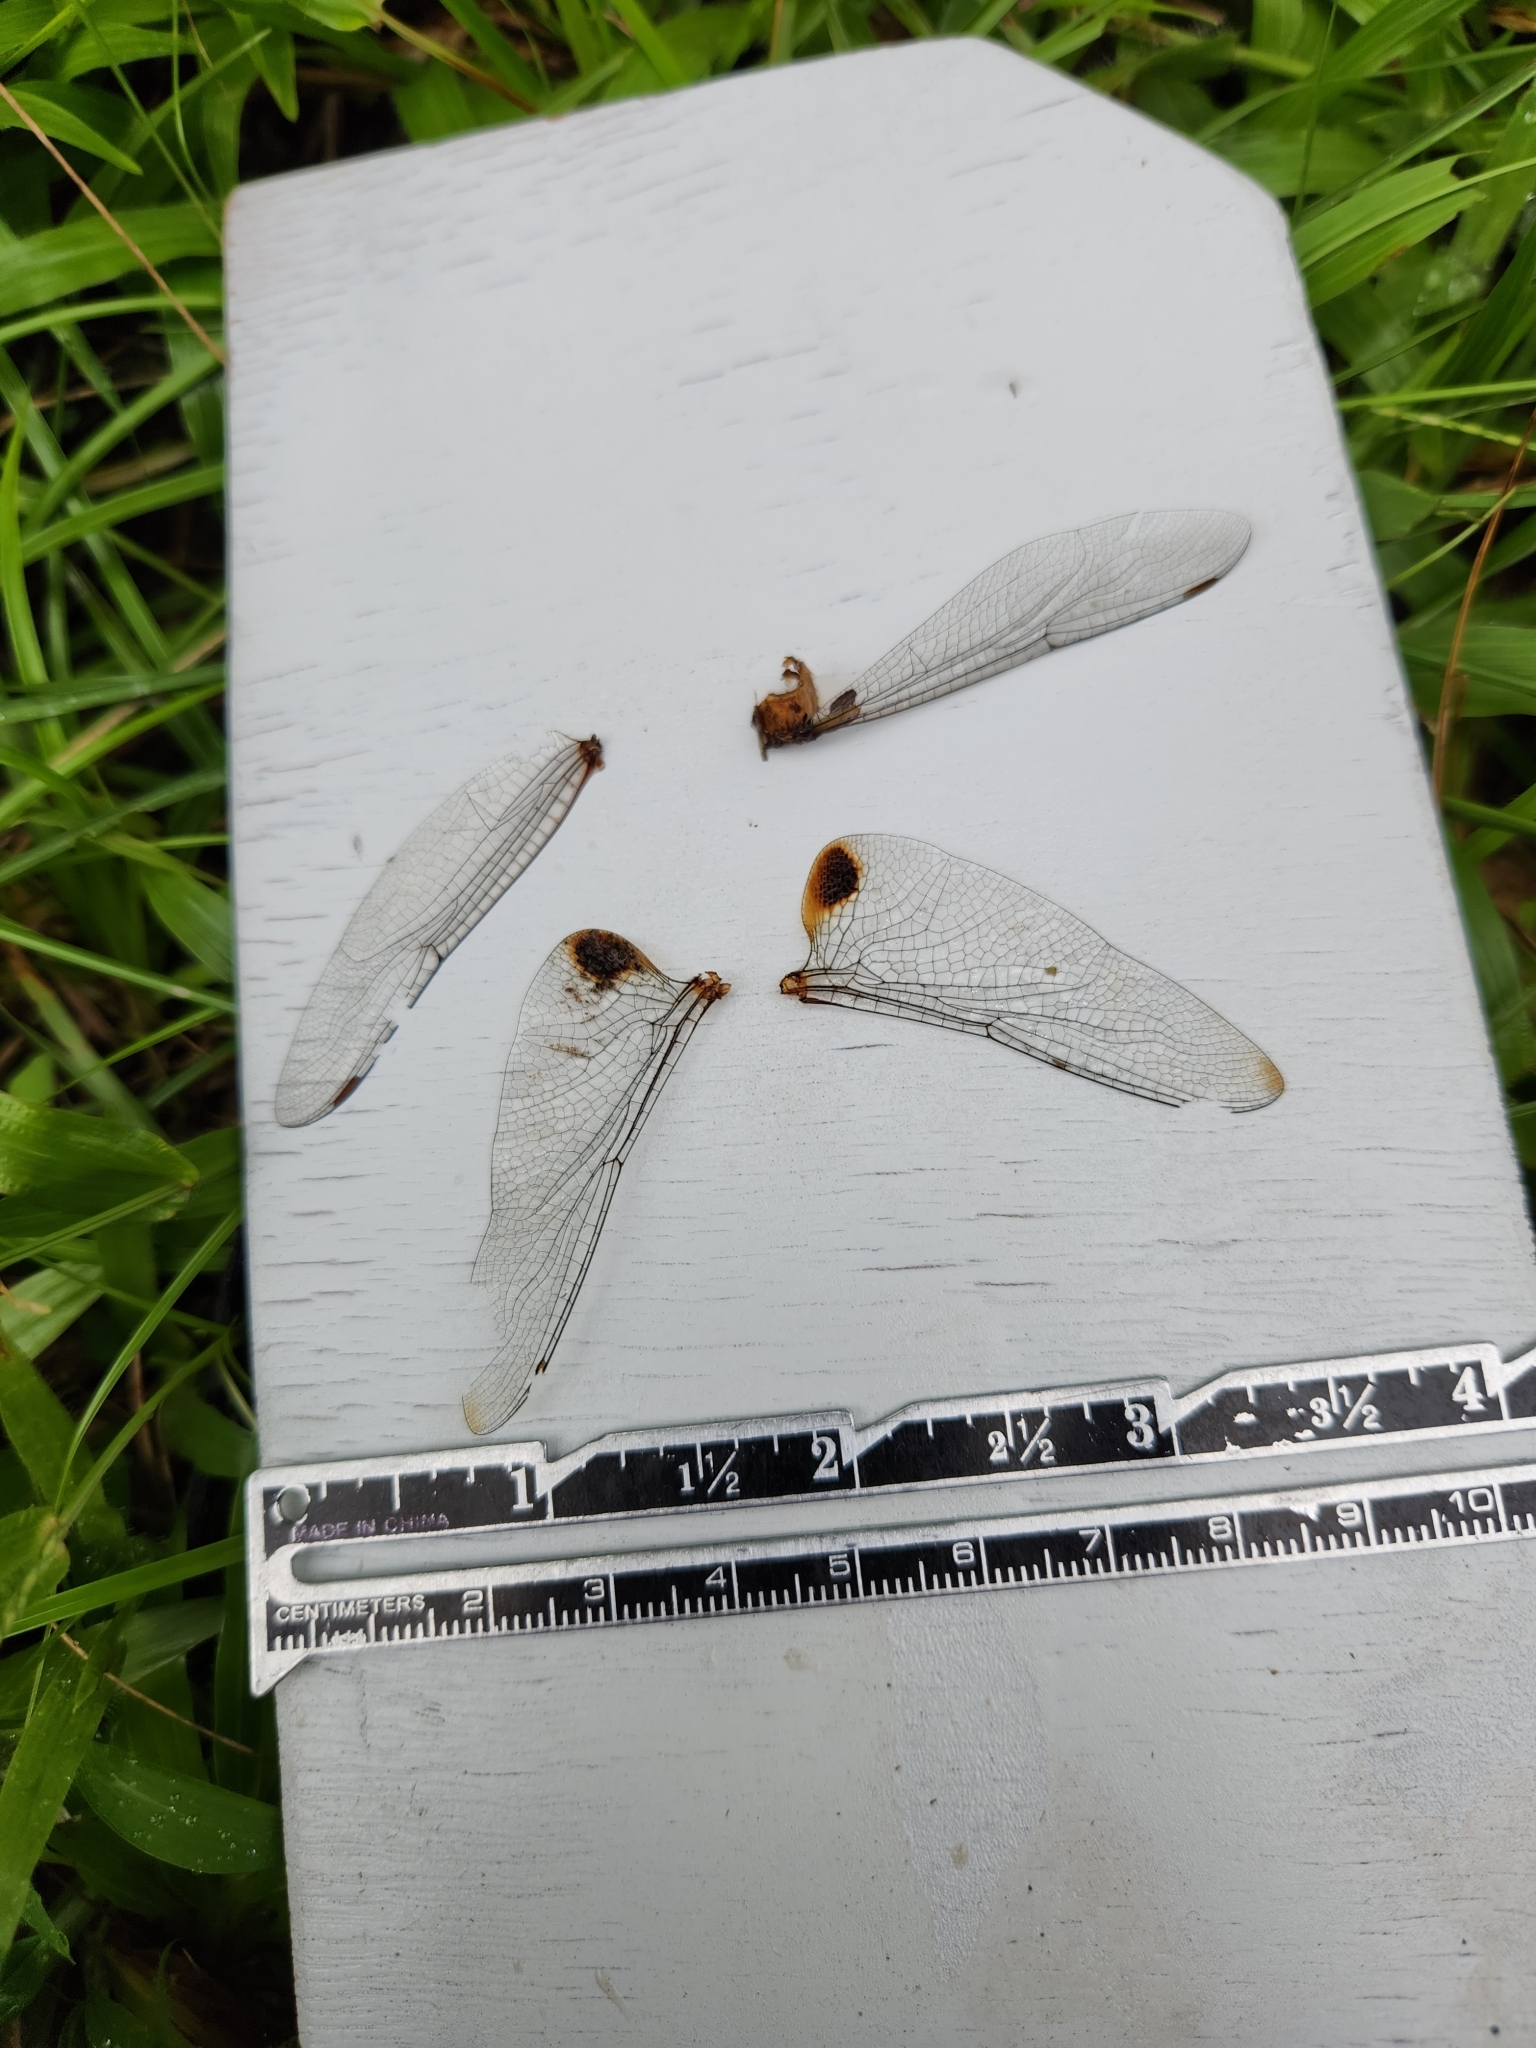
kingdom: Animalia
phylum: Arthropoda
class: Insecta
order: Odonata
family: Libellulidae
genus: Pantala
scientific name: Pantala hymenaea
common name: Spot-winged glider
